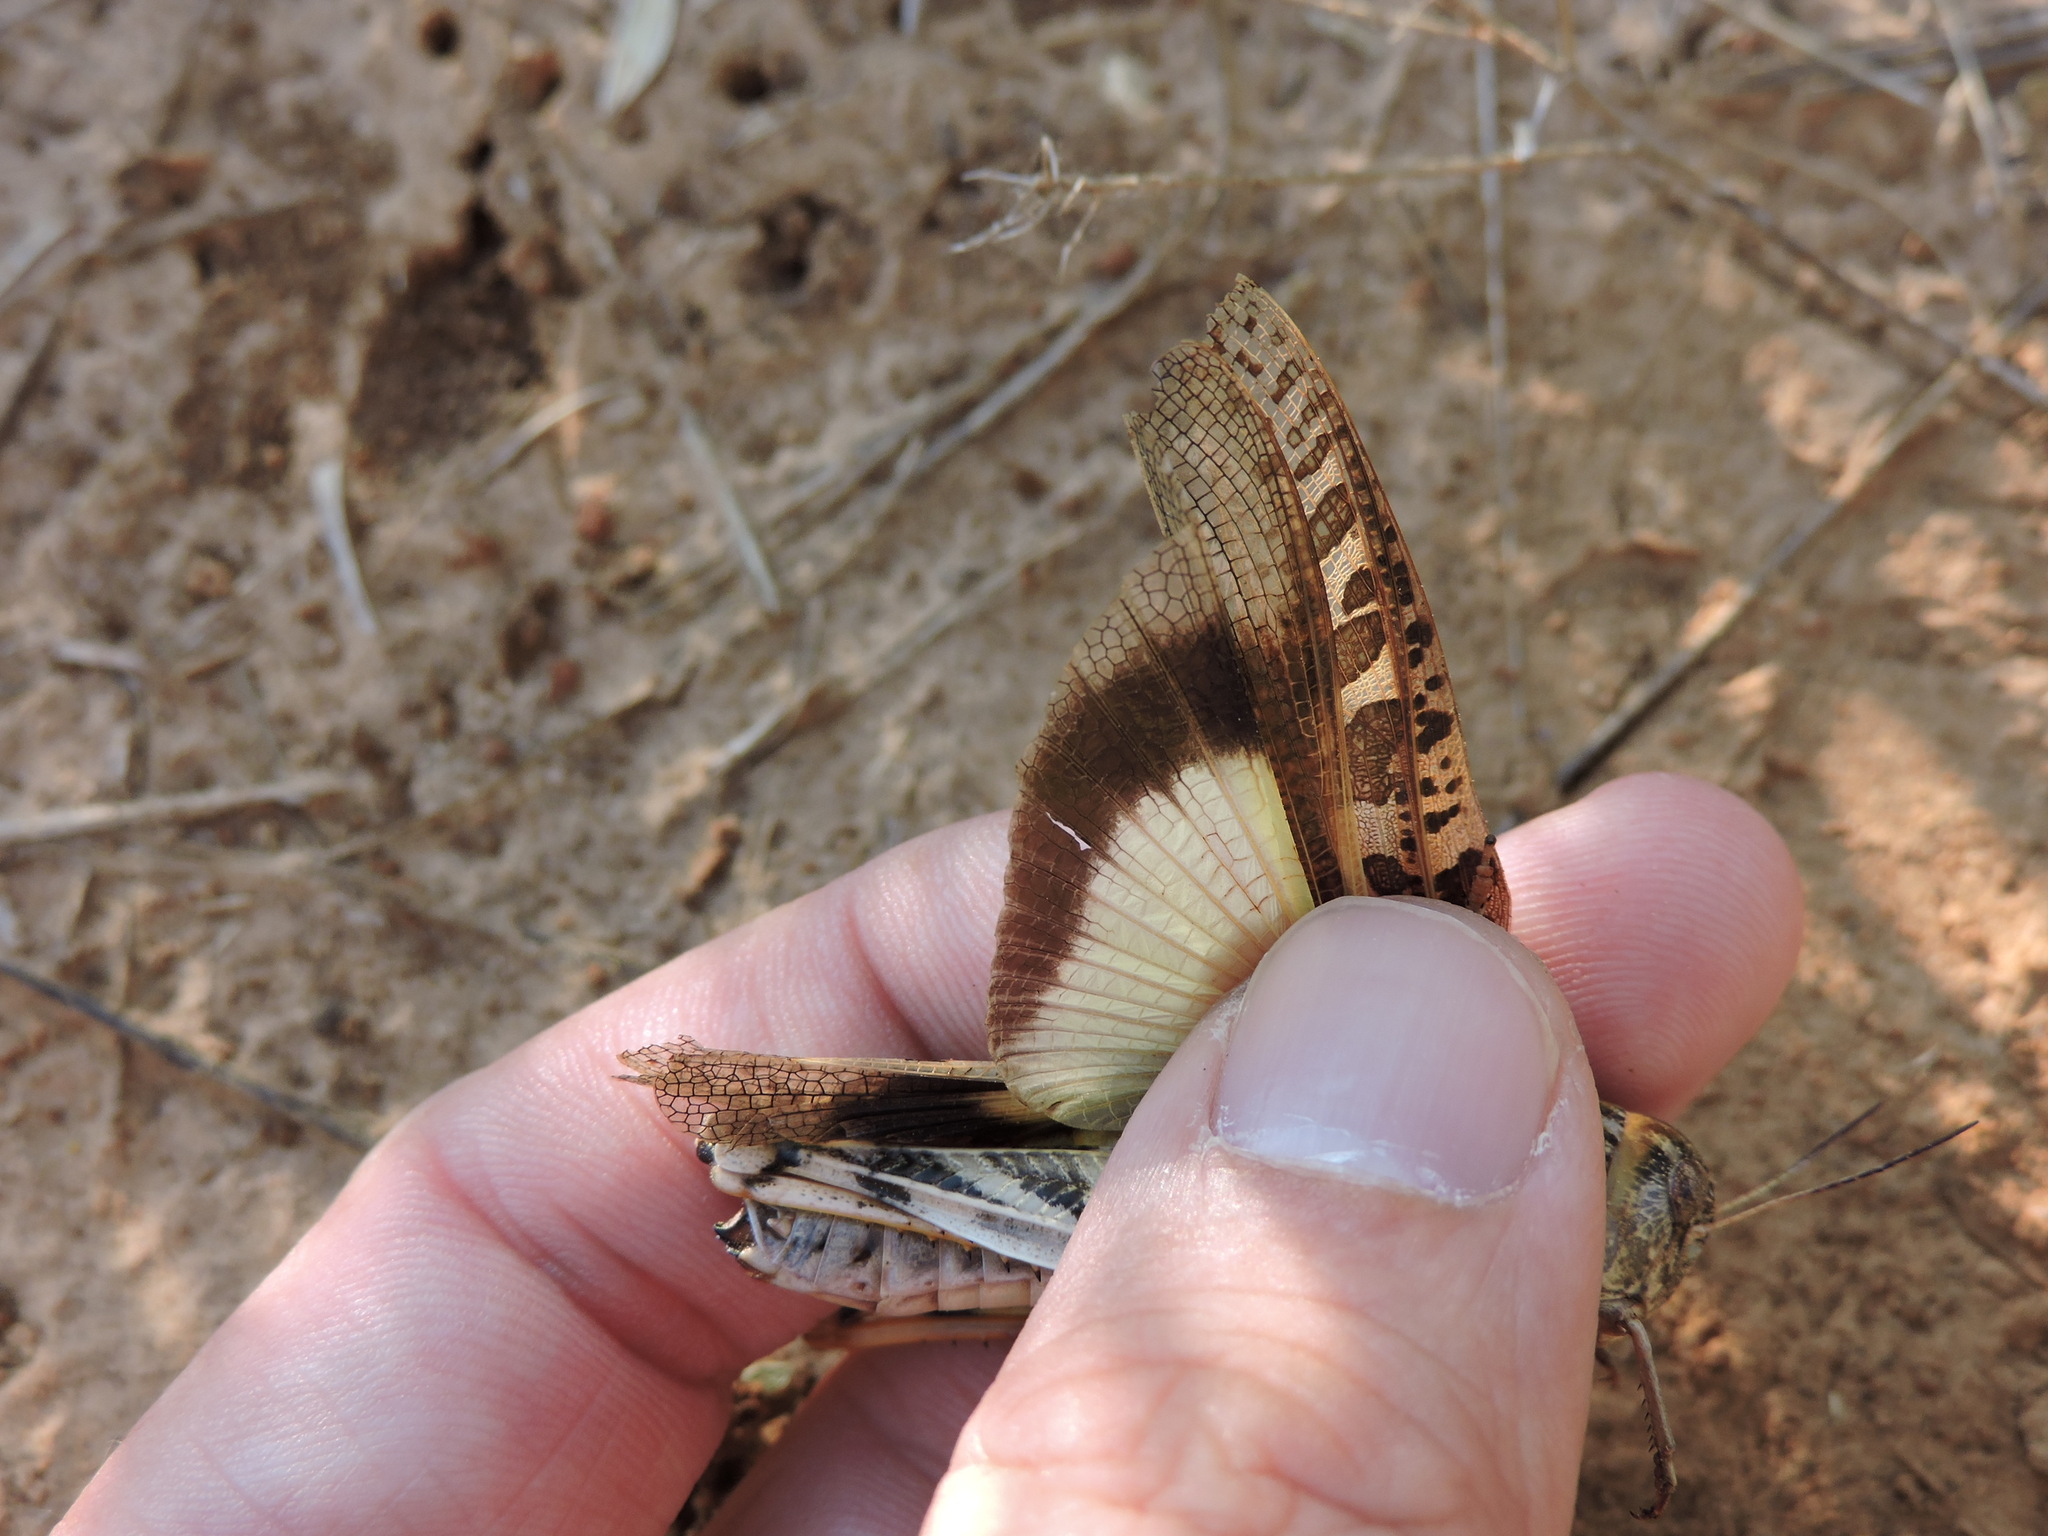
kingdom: Animalia
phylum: Arthropoda
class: Insecta
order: Orthoptera
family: Acrididae
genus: Hippiscus
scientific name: Hippiscus ocelote
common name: Wrinkled grasshopper
